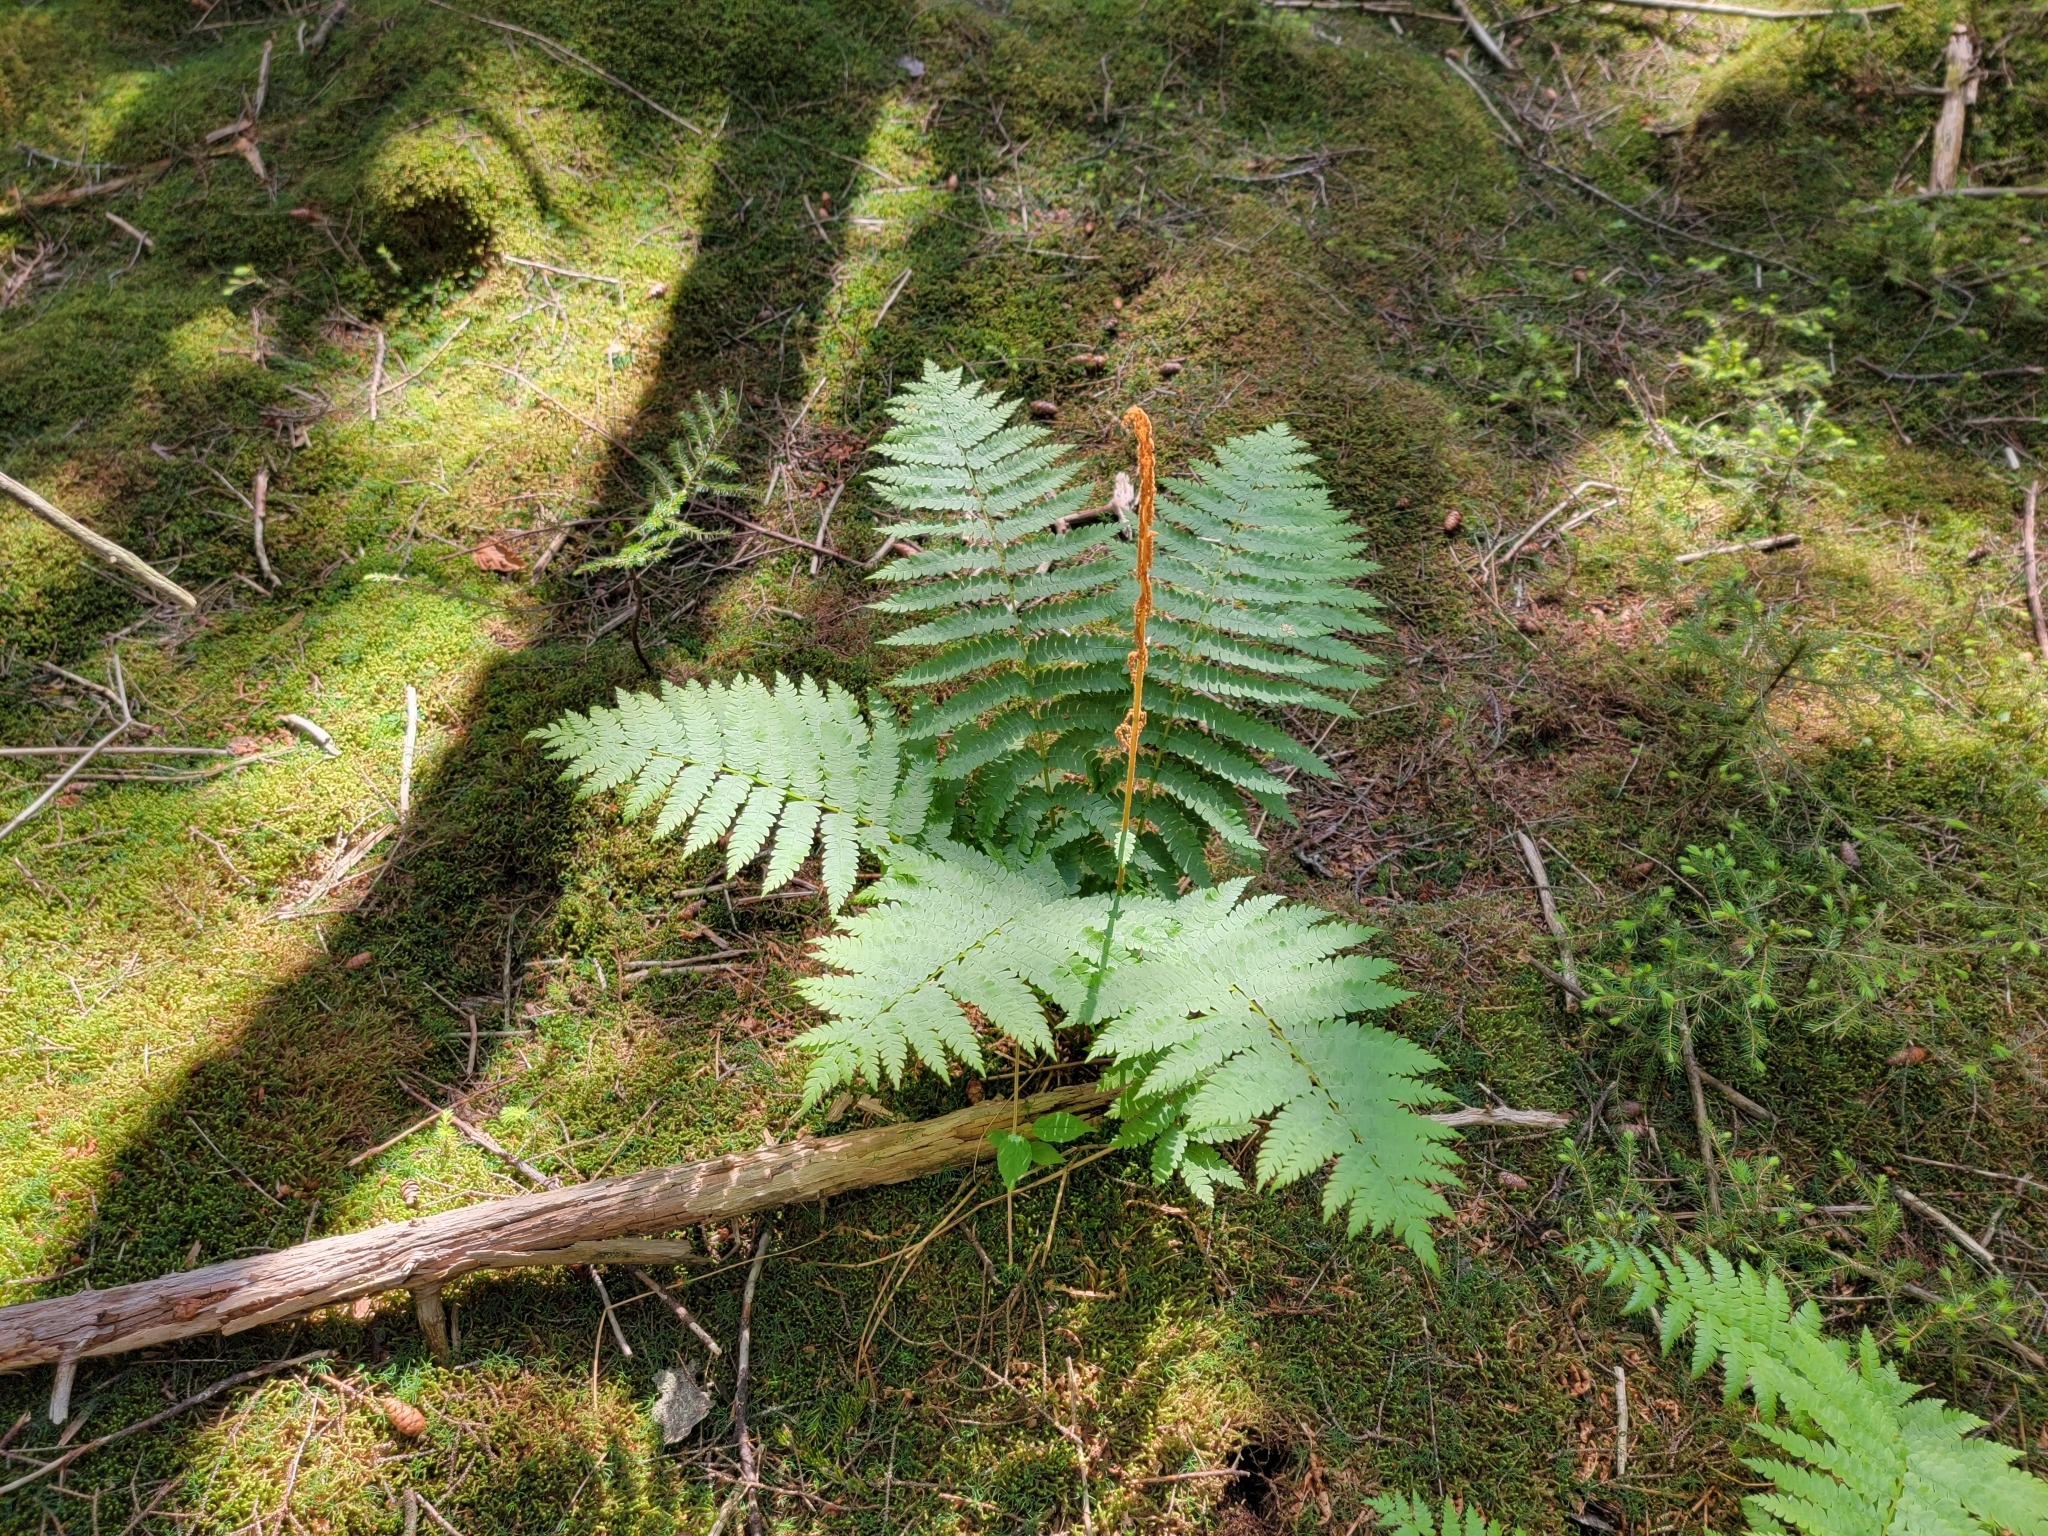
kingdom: Plantae
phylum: Tracheophyta
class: Polypodiopsida
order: Osmundales
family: Osmundaceae
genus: Osmundastrum
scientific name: Osmundastrum cinnamomeum
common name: Cinnamon fern
